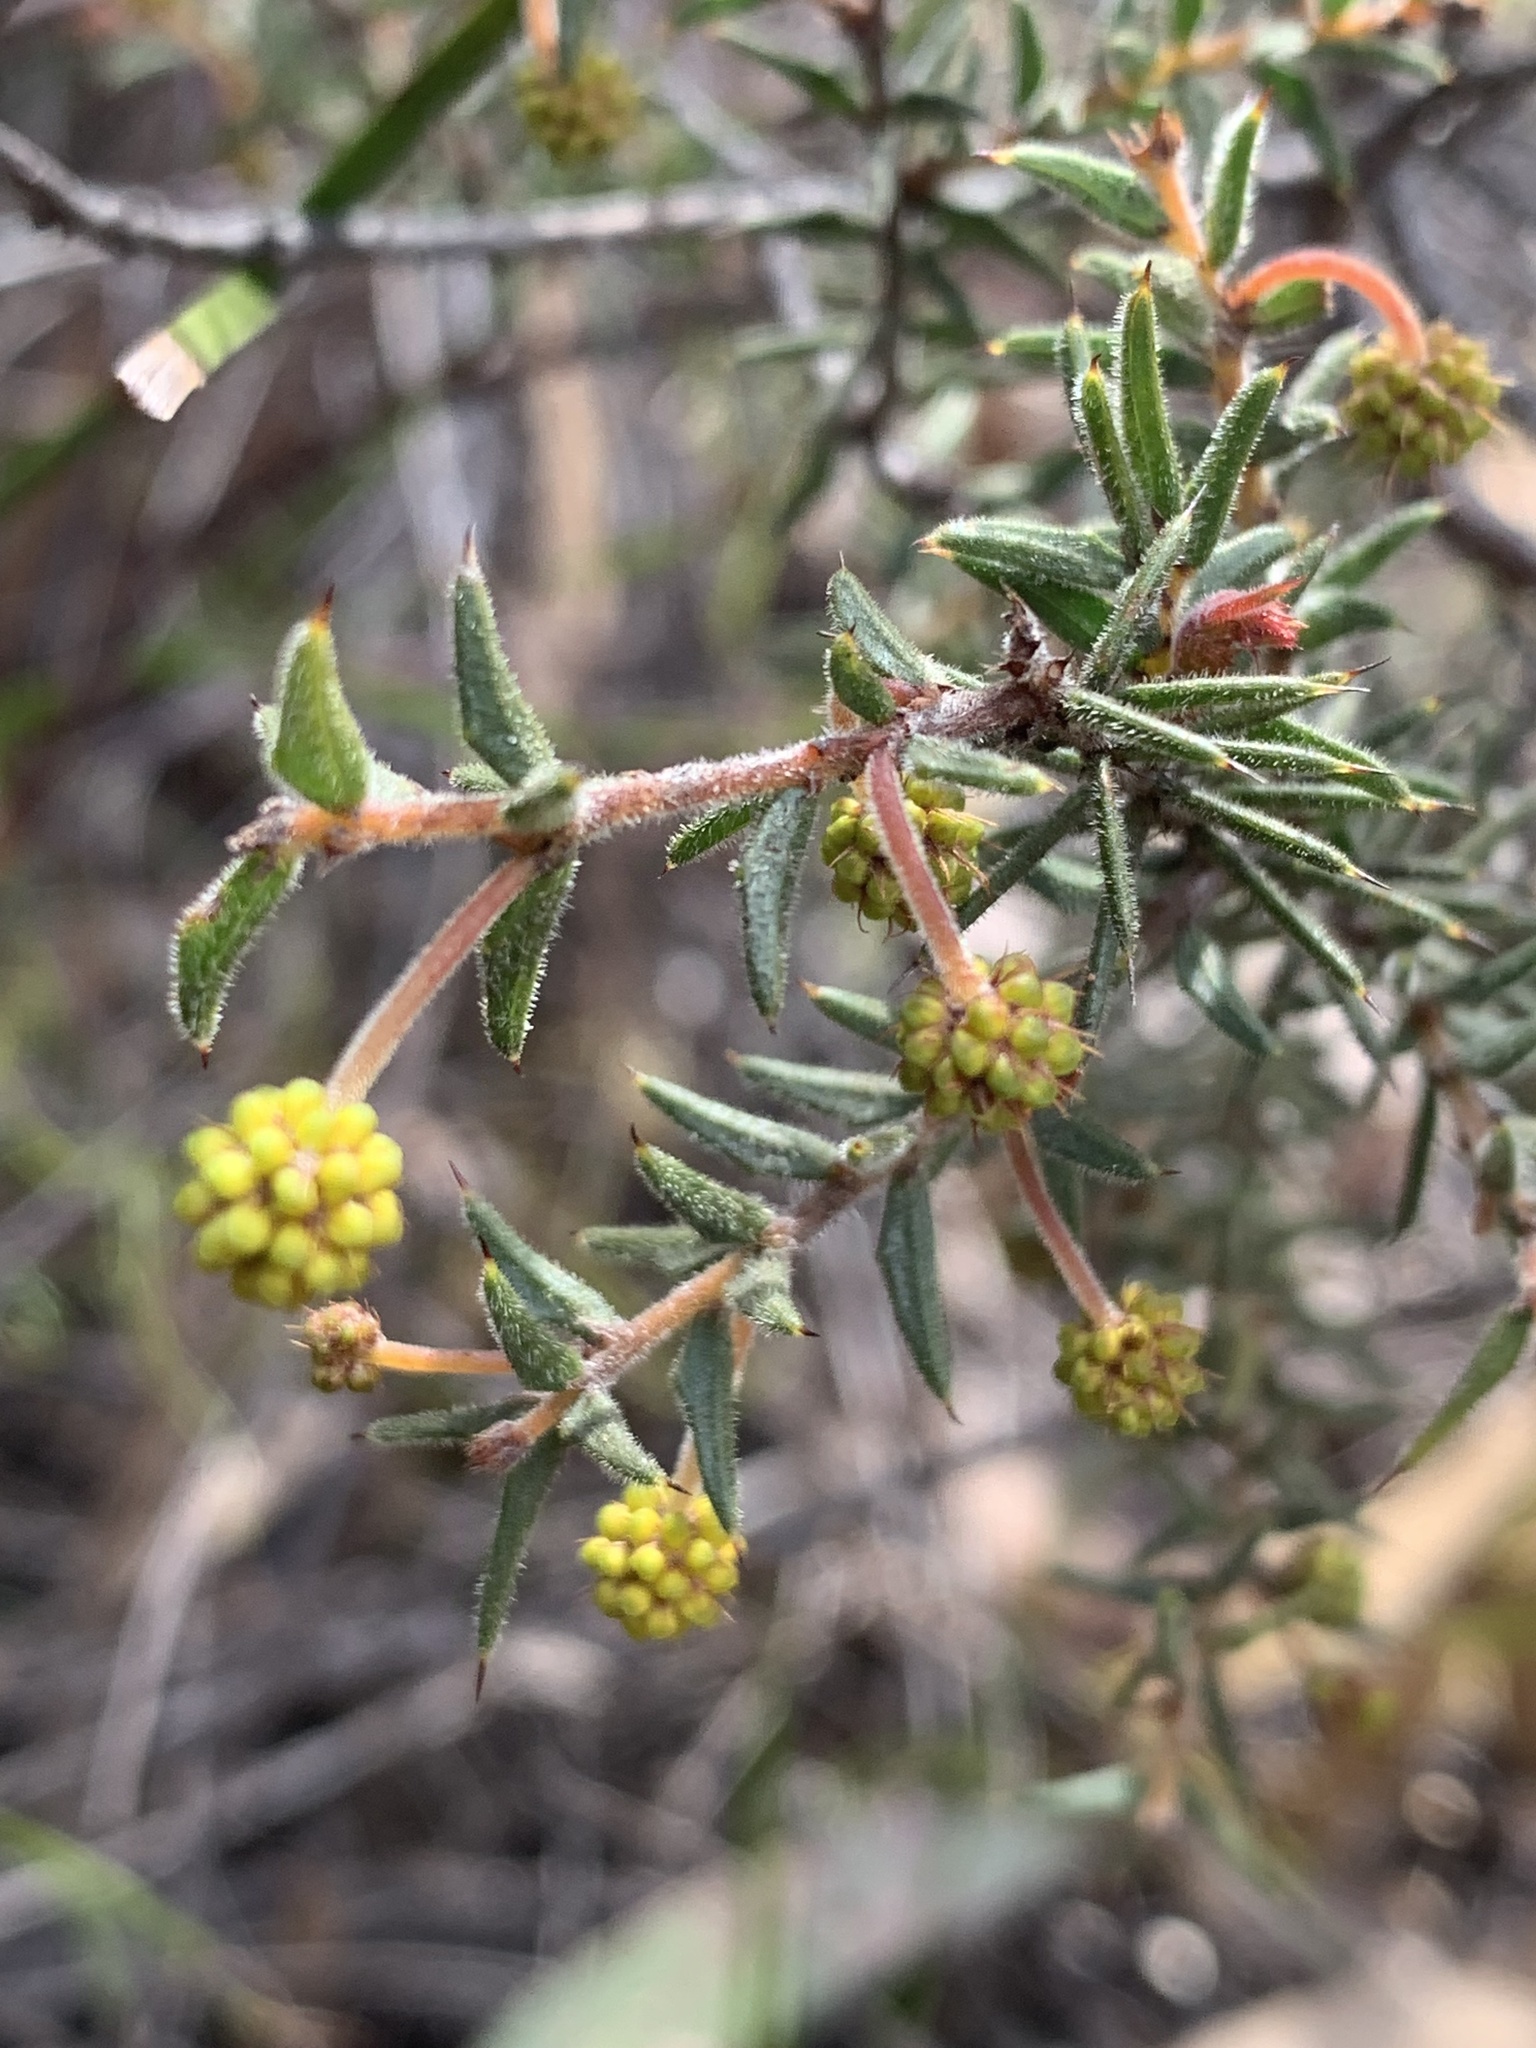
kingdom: Plantae
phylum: Tracheophyta
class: Magnoliopsida
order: Fabales
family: Fabaceae
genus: Acacia
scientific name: Acacia gunnii
